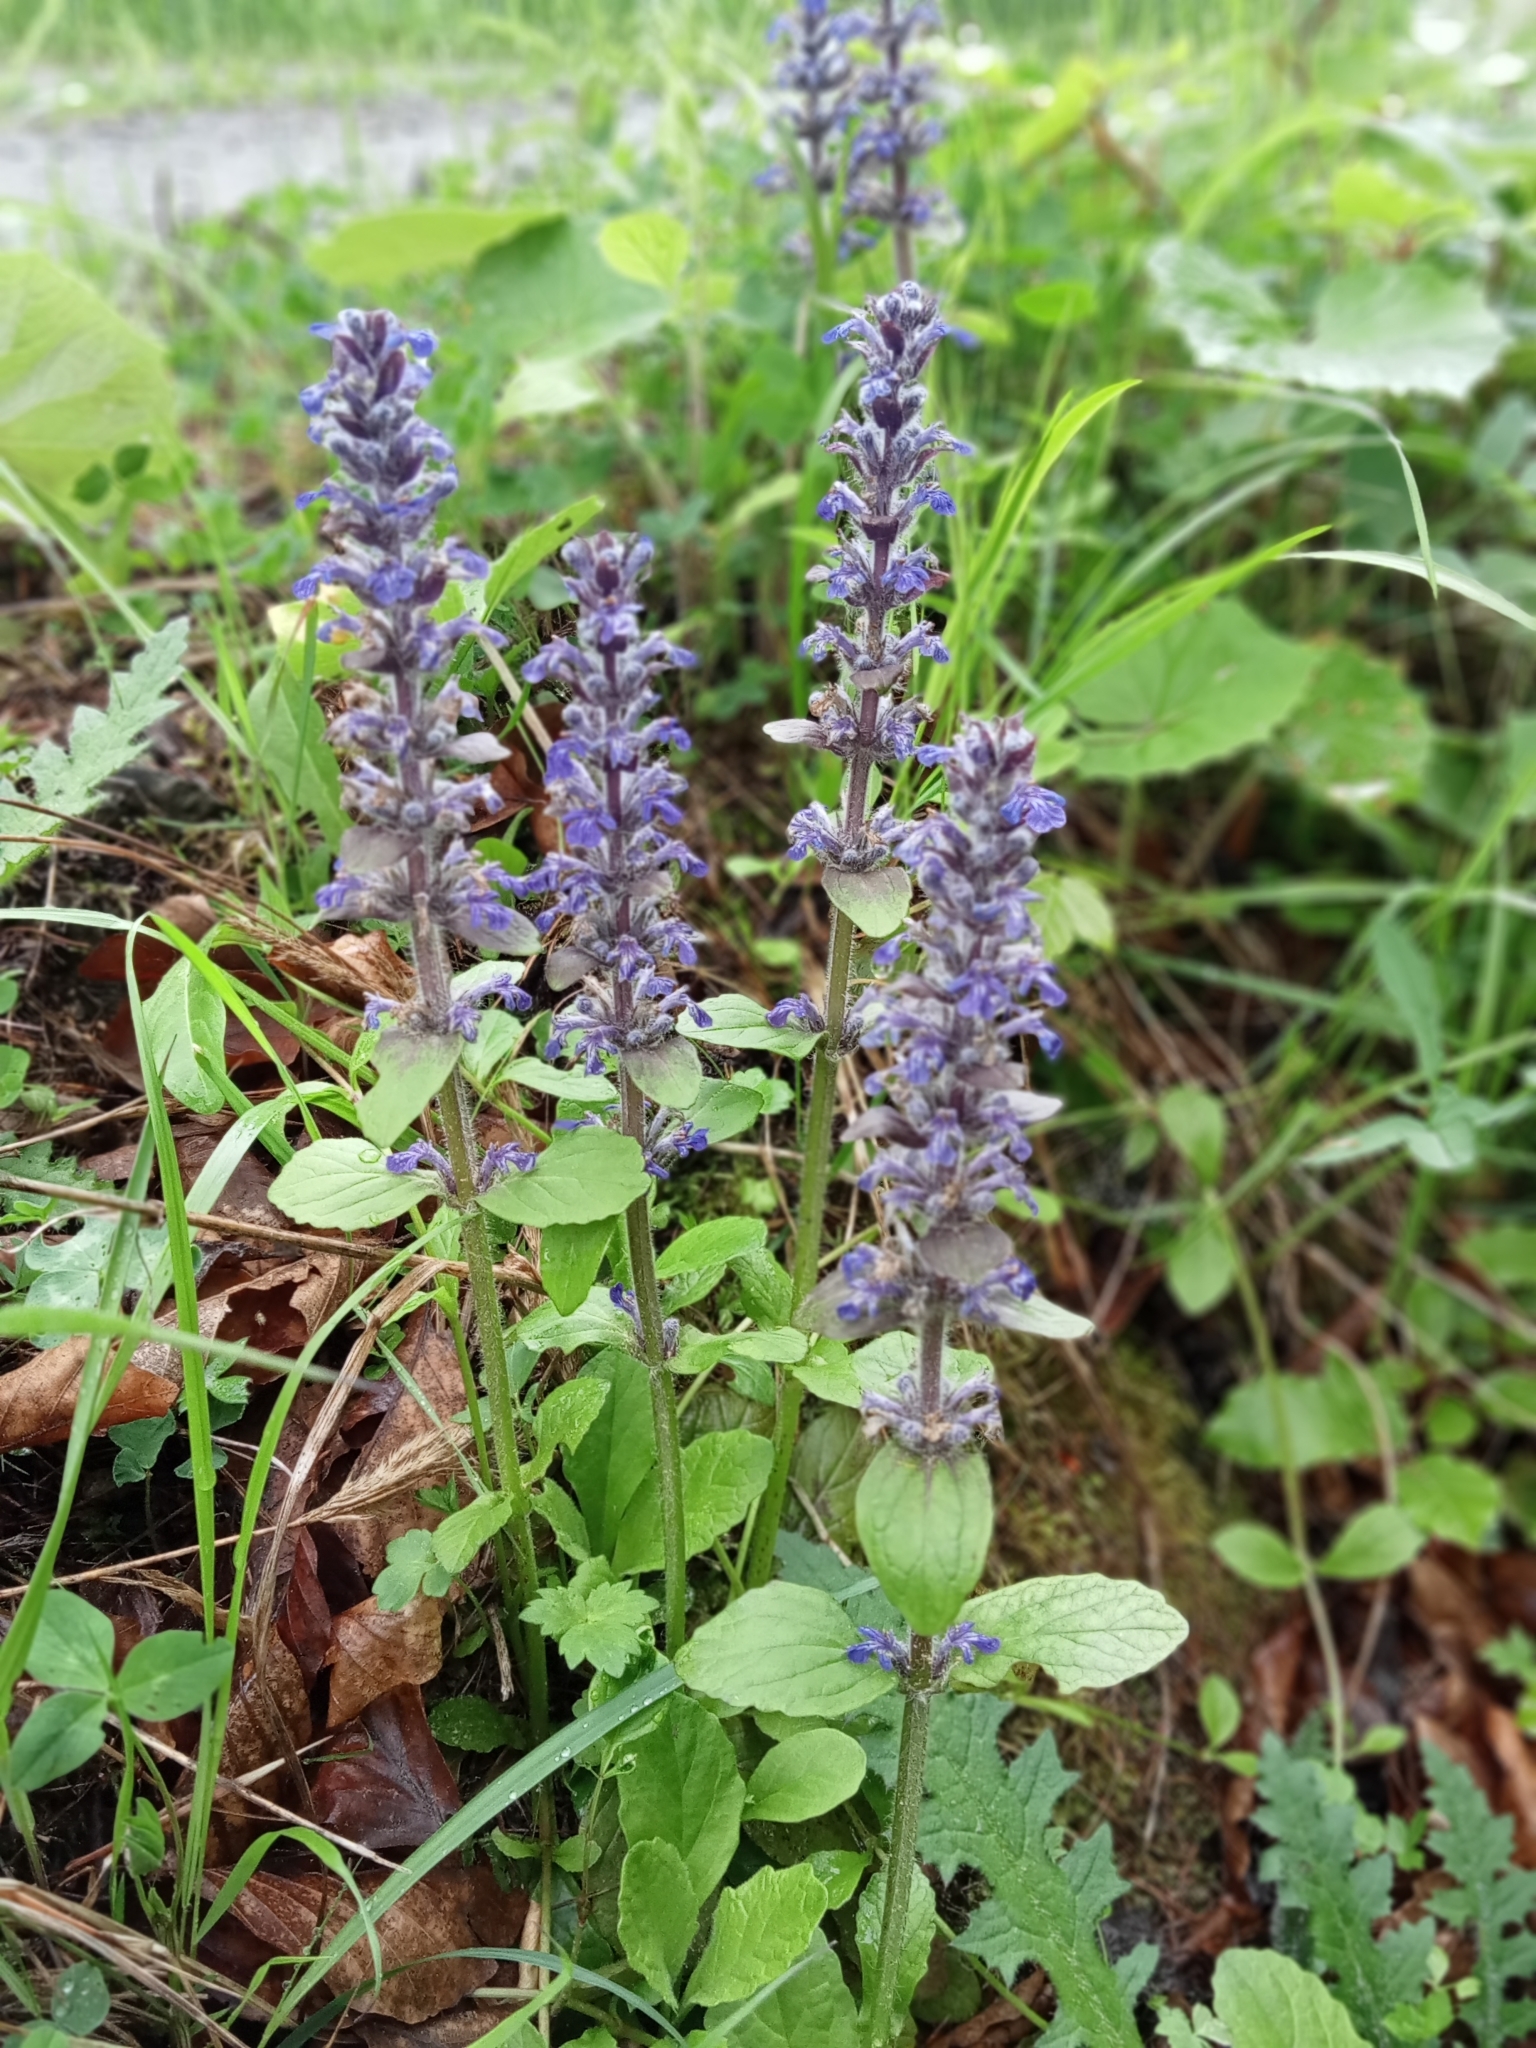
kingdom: Plantae
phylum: Tracheophyta
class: Magnoliopsida
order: Lamiales
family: Lamiaceae
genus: Ajuga
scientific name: Ajuga reptans
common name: Bugle
